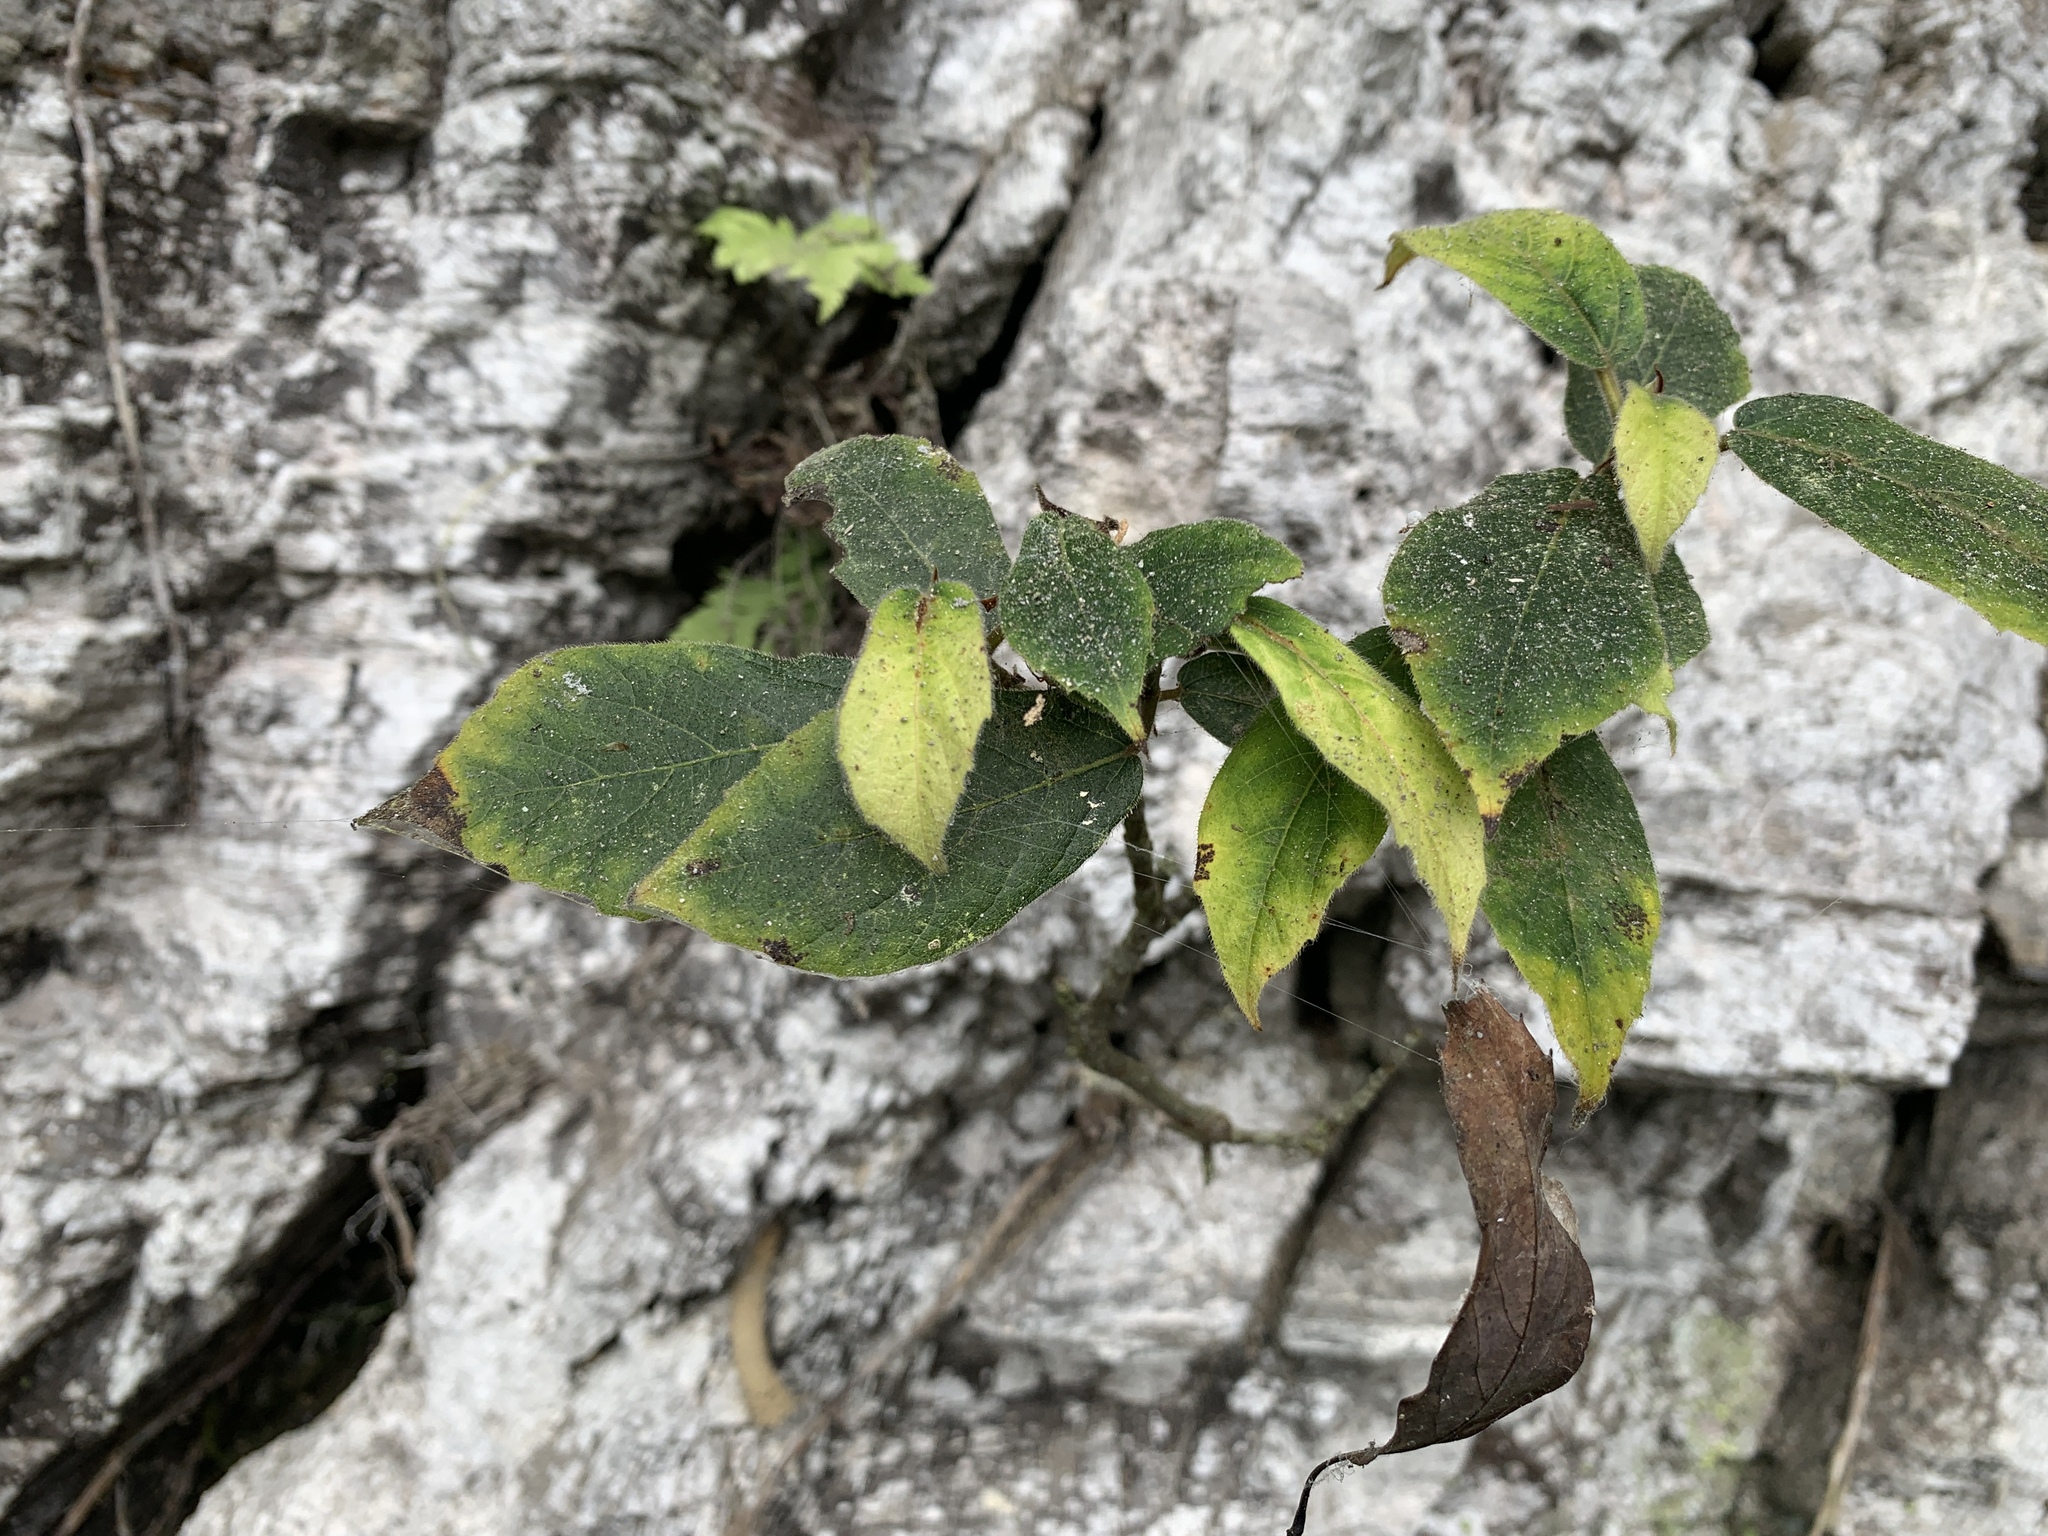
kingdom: Plantae
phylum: Tracheophyta
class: Magnoliopsida
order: Rosales
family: Moraceae
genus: Ficus
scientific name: Ficus erecta
